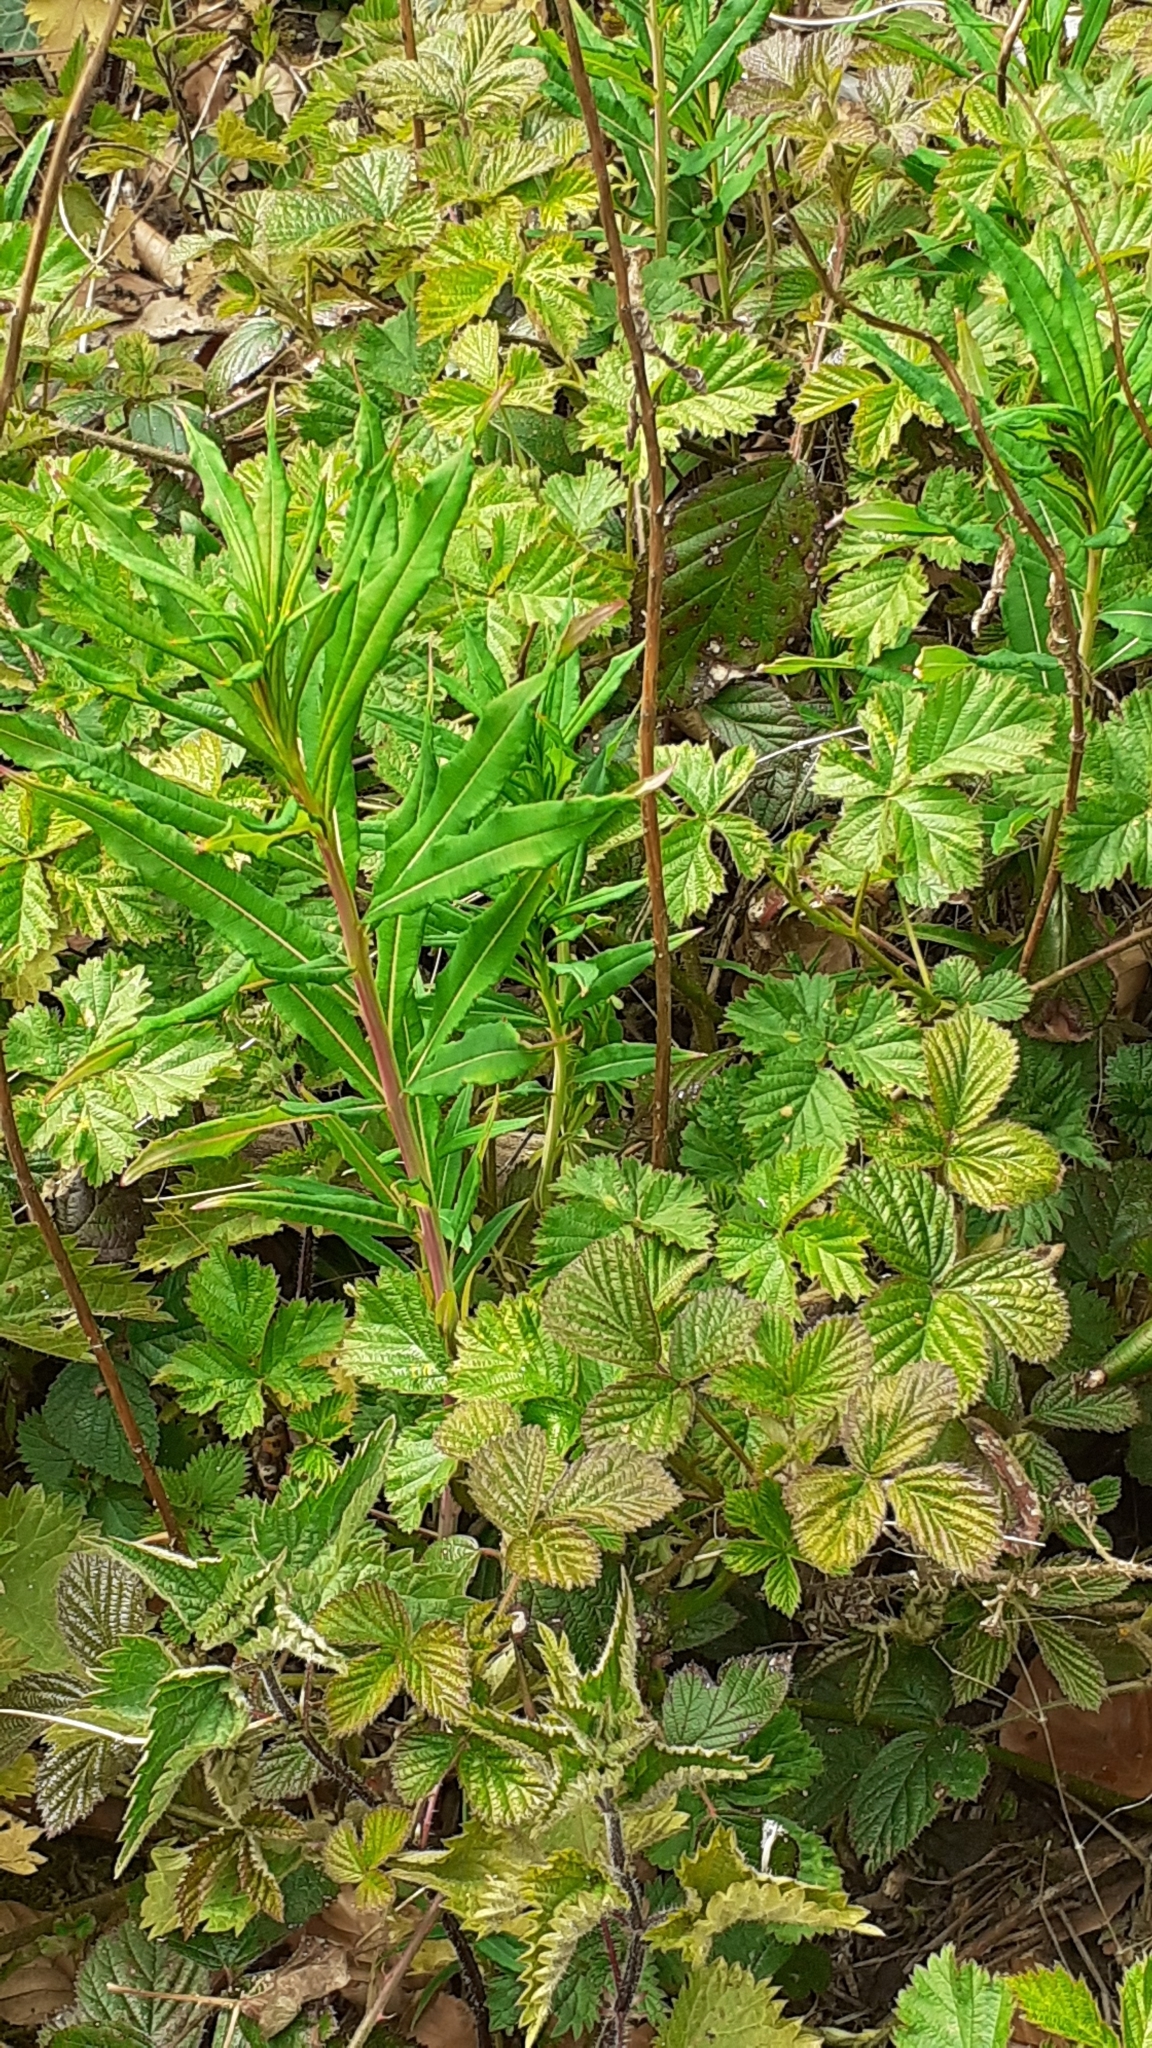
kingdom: Plantae
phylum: Tracheophyta
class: Magnoliopsida
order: Myrtales
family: Onagraceae
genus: Chamaenerion
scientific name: Chamaenerion angustifolium
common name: Fireweed
